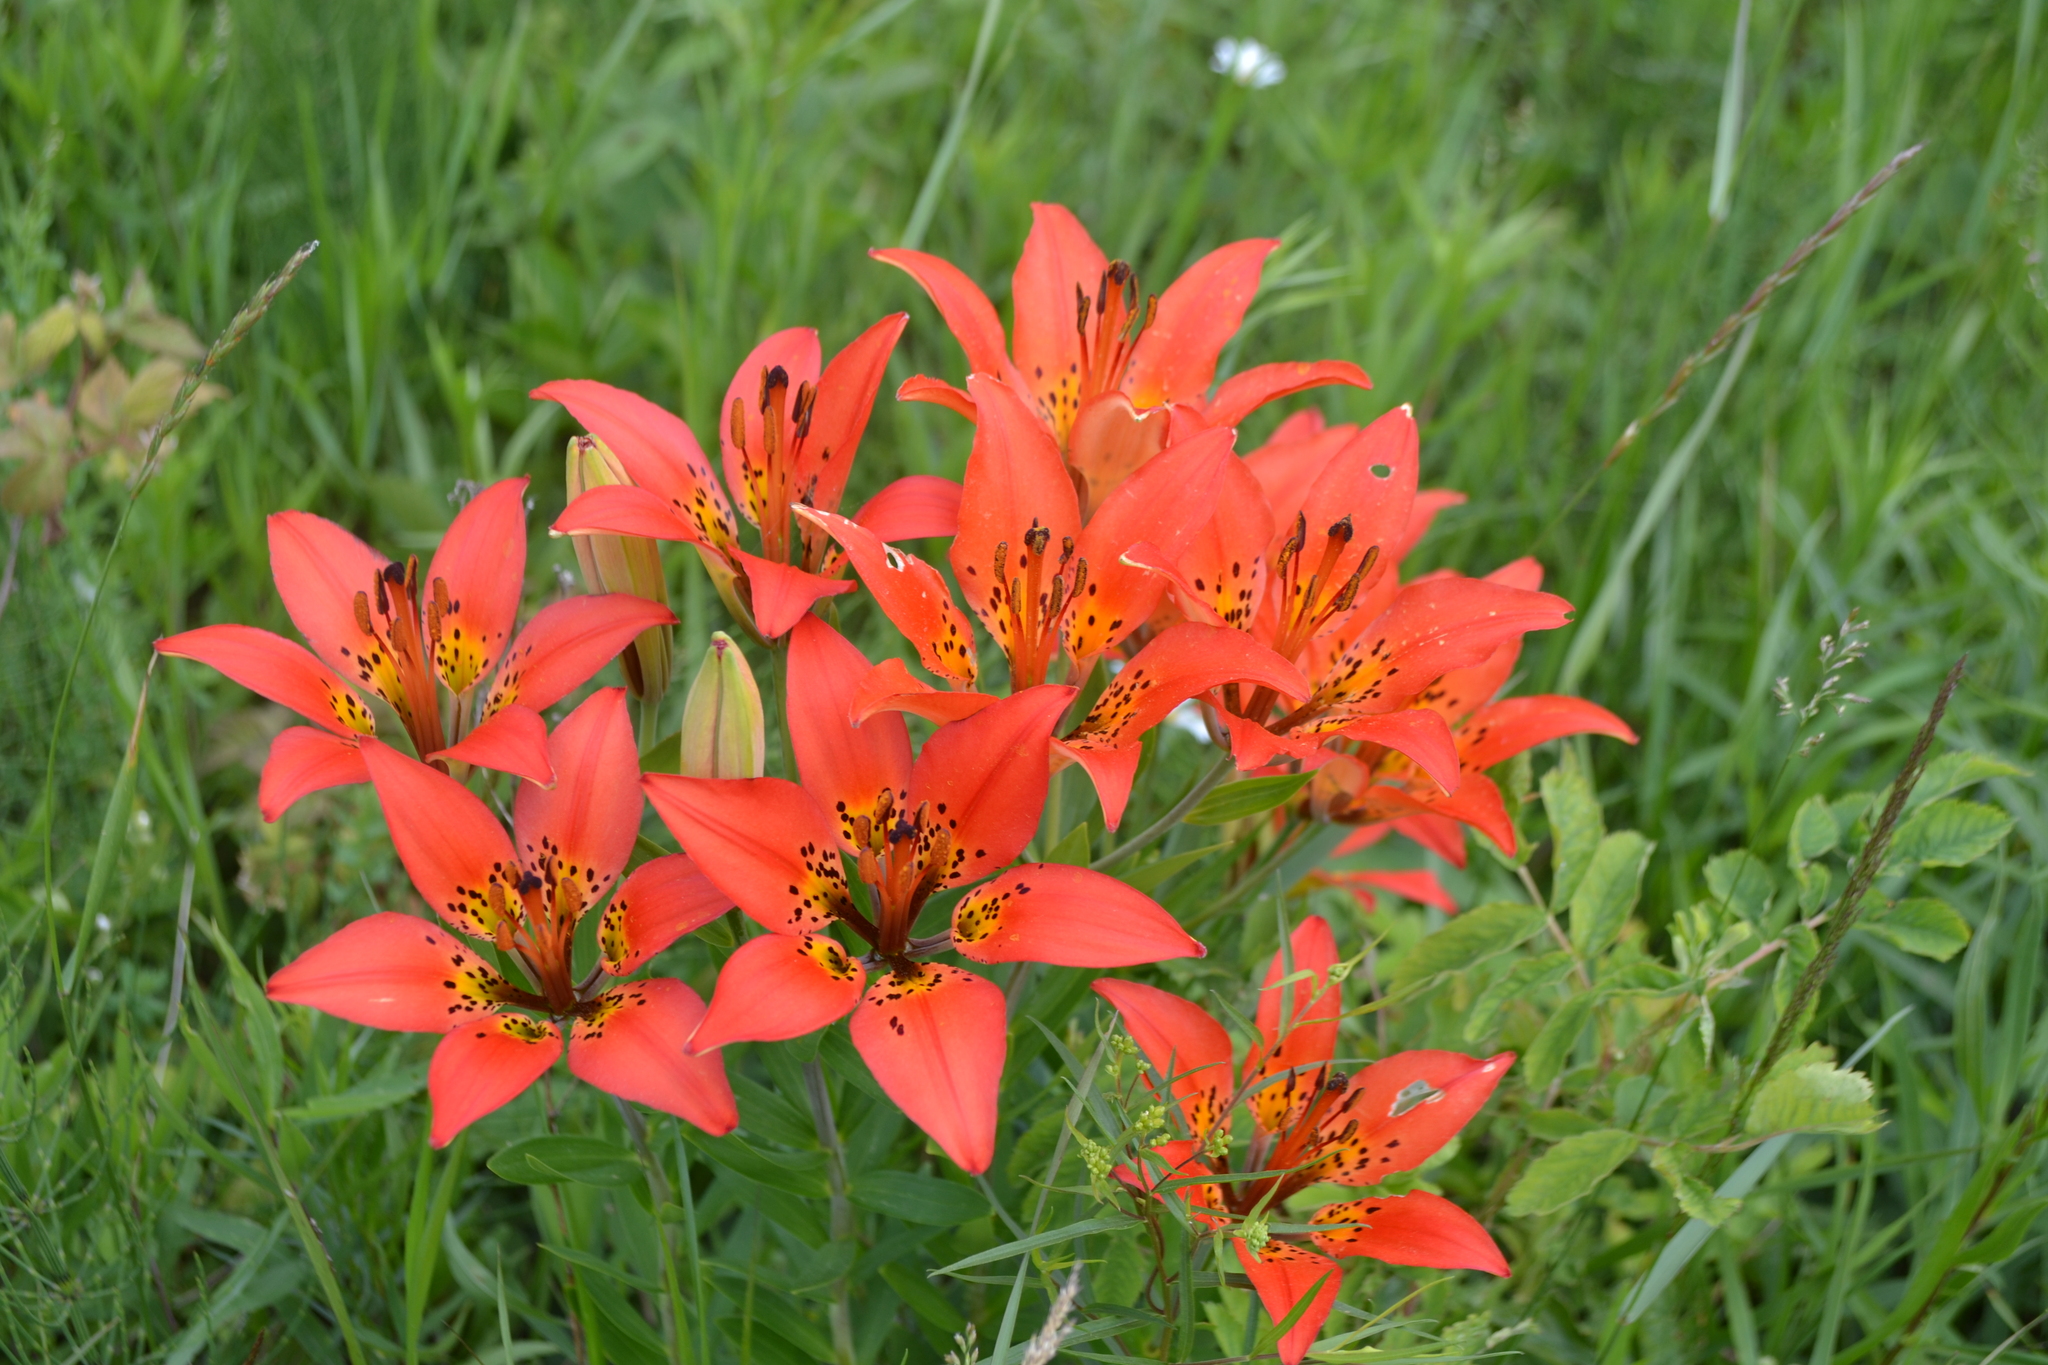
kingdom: Plantae
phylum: Tracheophyta
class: Liliopsida
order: Liliales
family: Liliaceae
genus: Lilium
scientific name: Lilium philadelphicum
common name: Red lily
